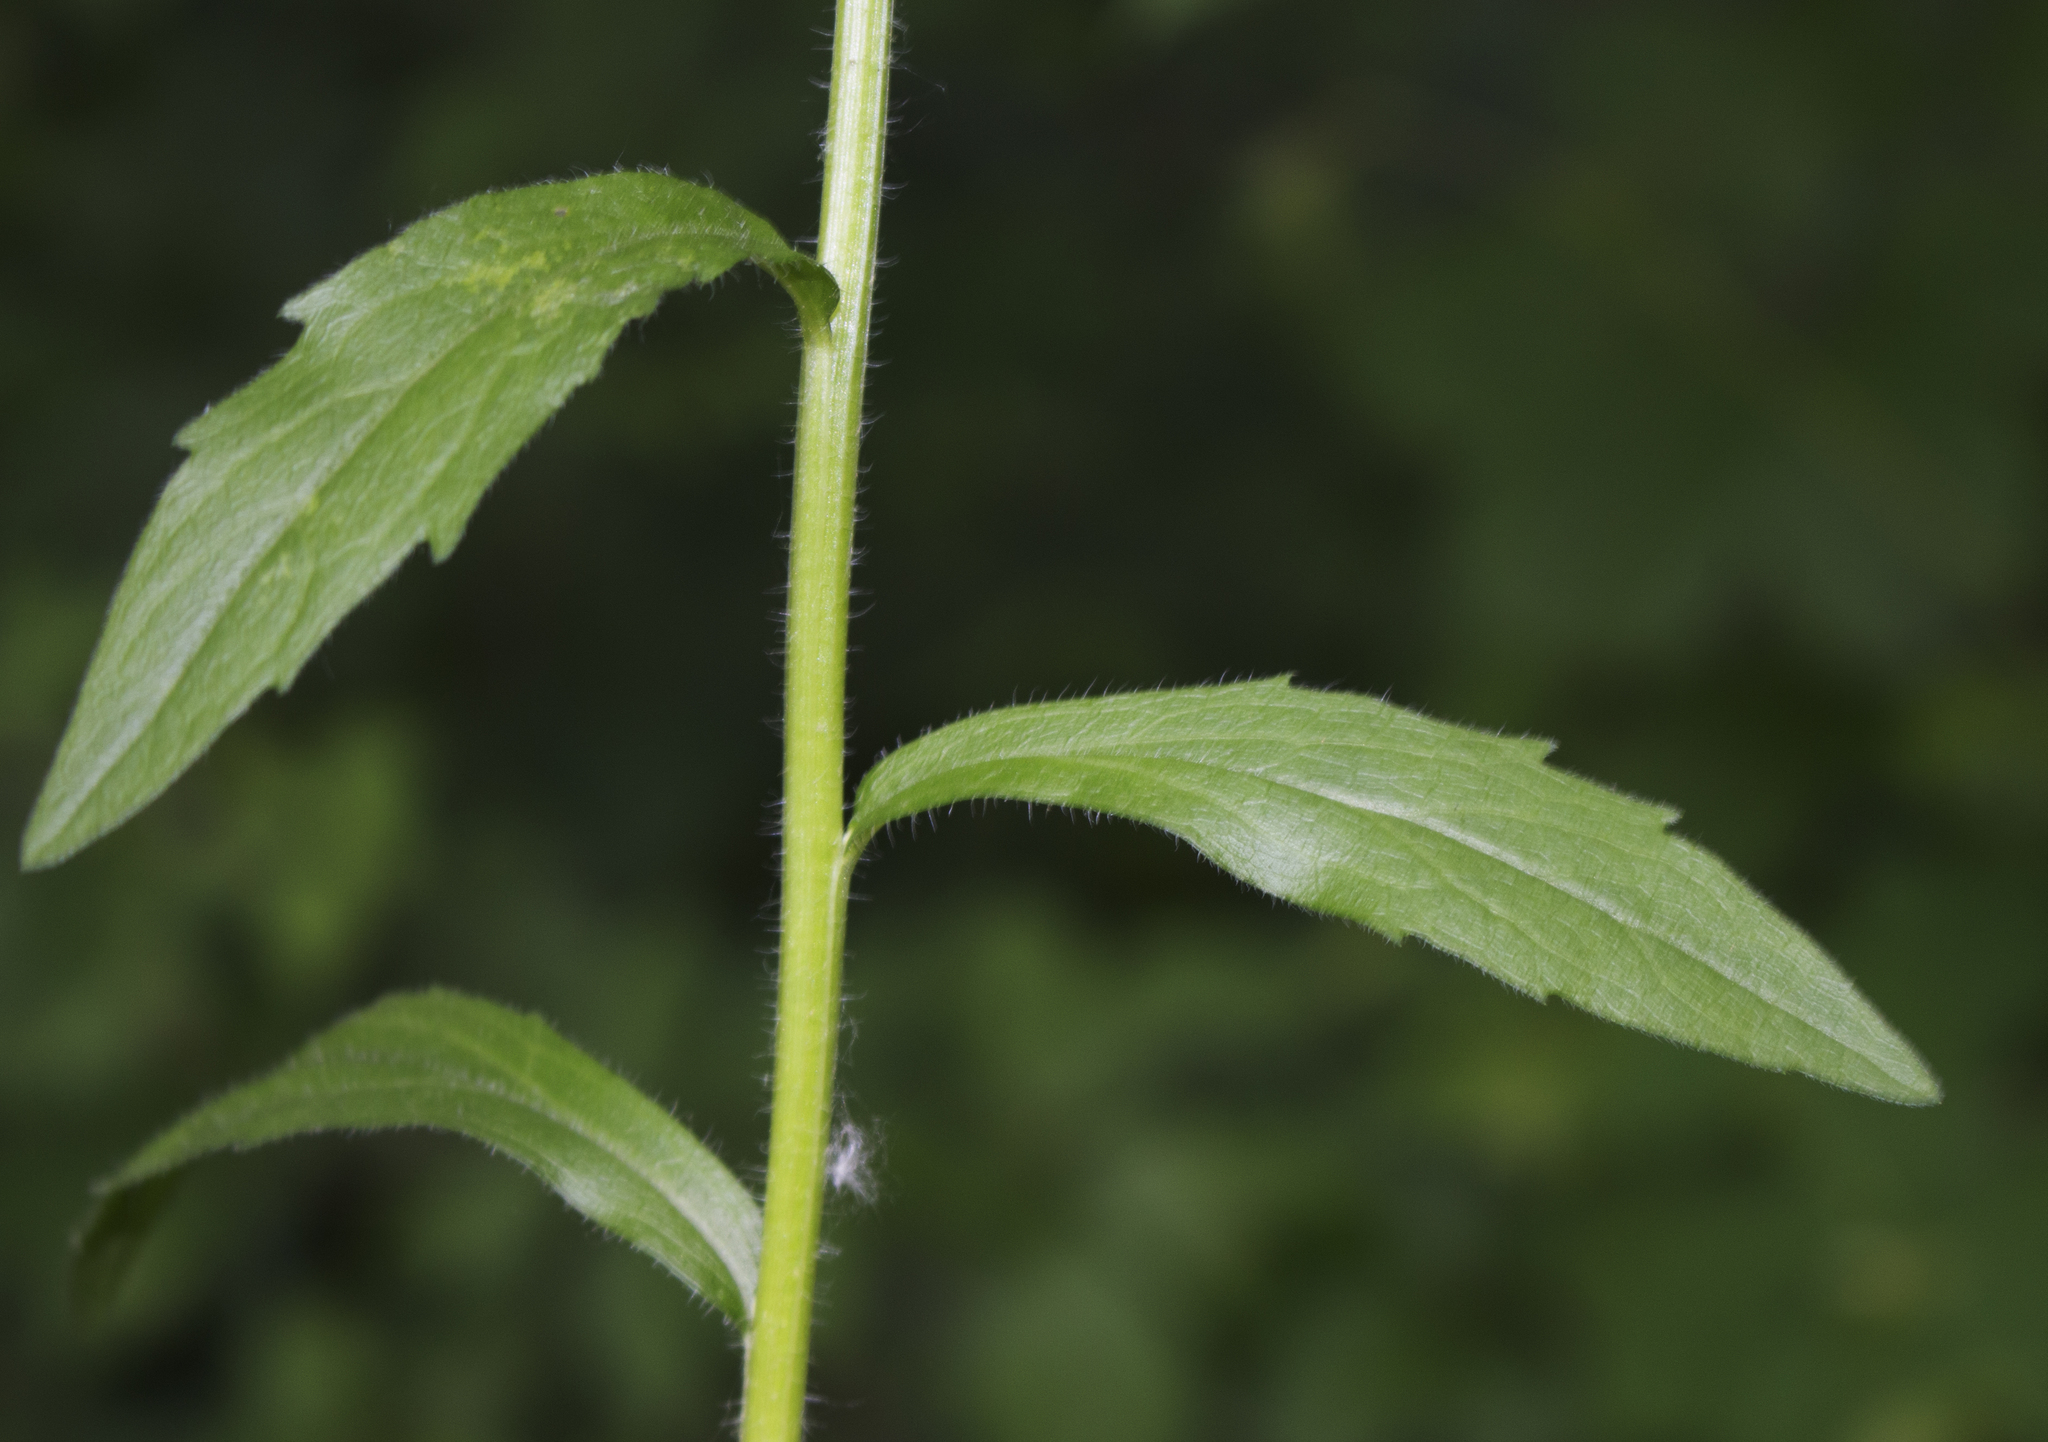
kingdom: Plantae
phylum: Tracheophyta
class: Magnoliopsida
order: Asterales
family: Asteraceae
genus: Erigeron
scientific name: Erigeron annuus
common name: Tall fleabane
